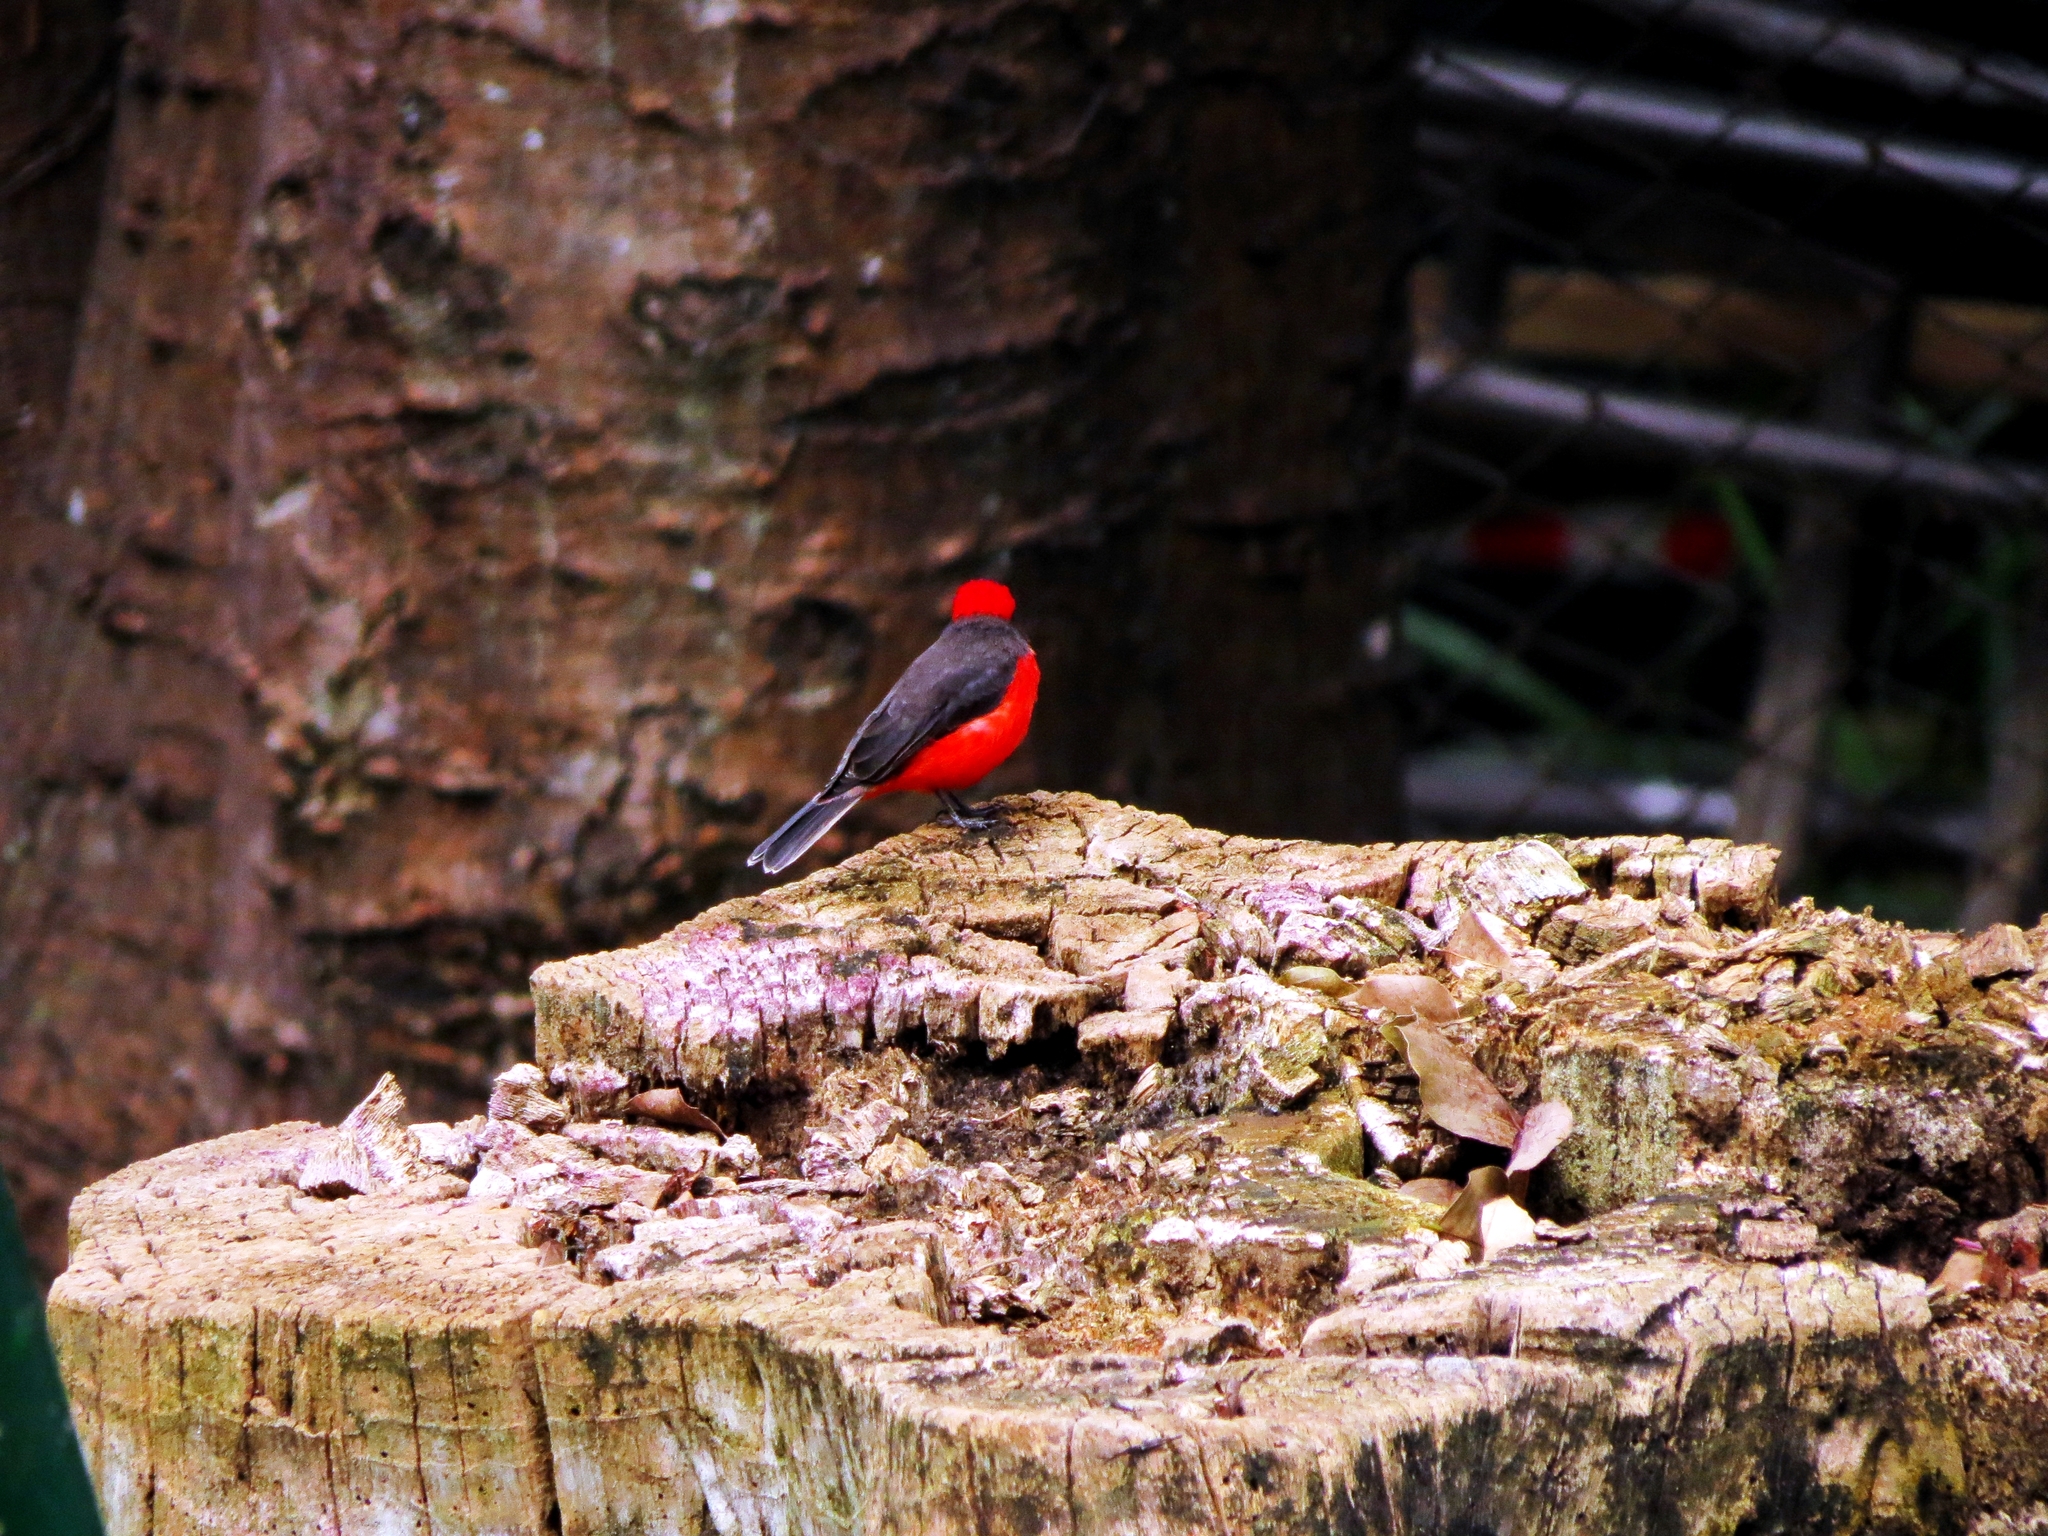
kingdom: Animalia
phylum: Chordata
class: Aves
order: Passeriformes
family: Tyrannidae
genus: Pyrocephalus
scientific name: Pyrocephalus rubinus
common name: Vermilion flycatcher
